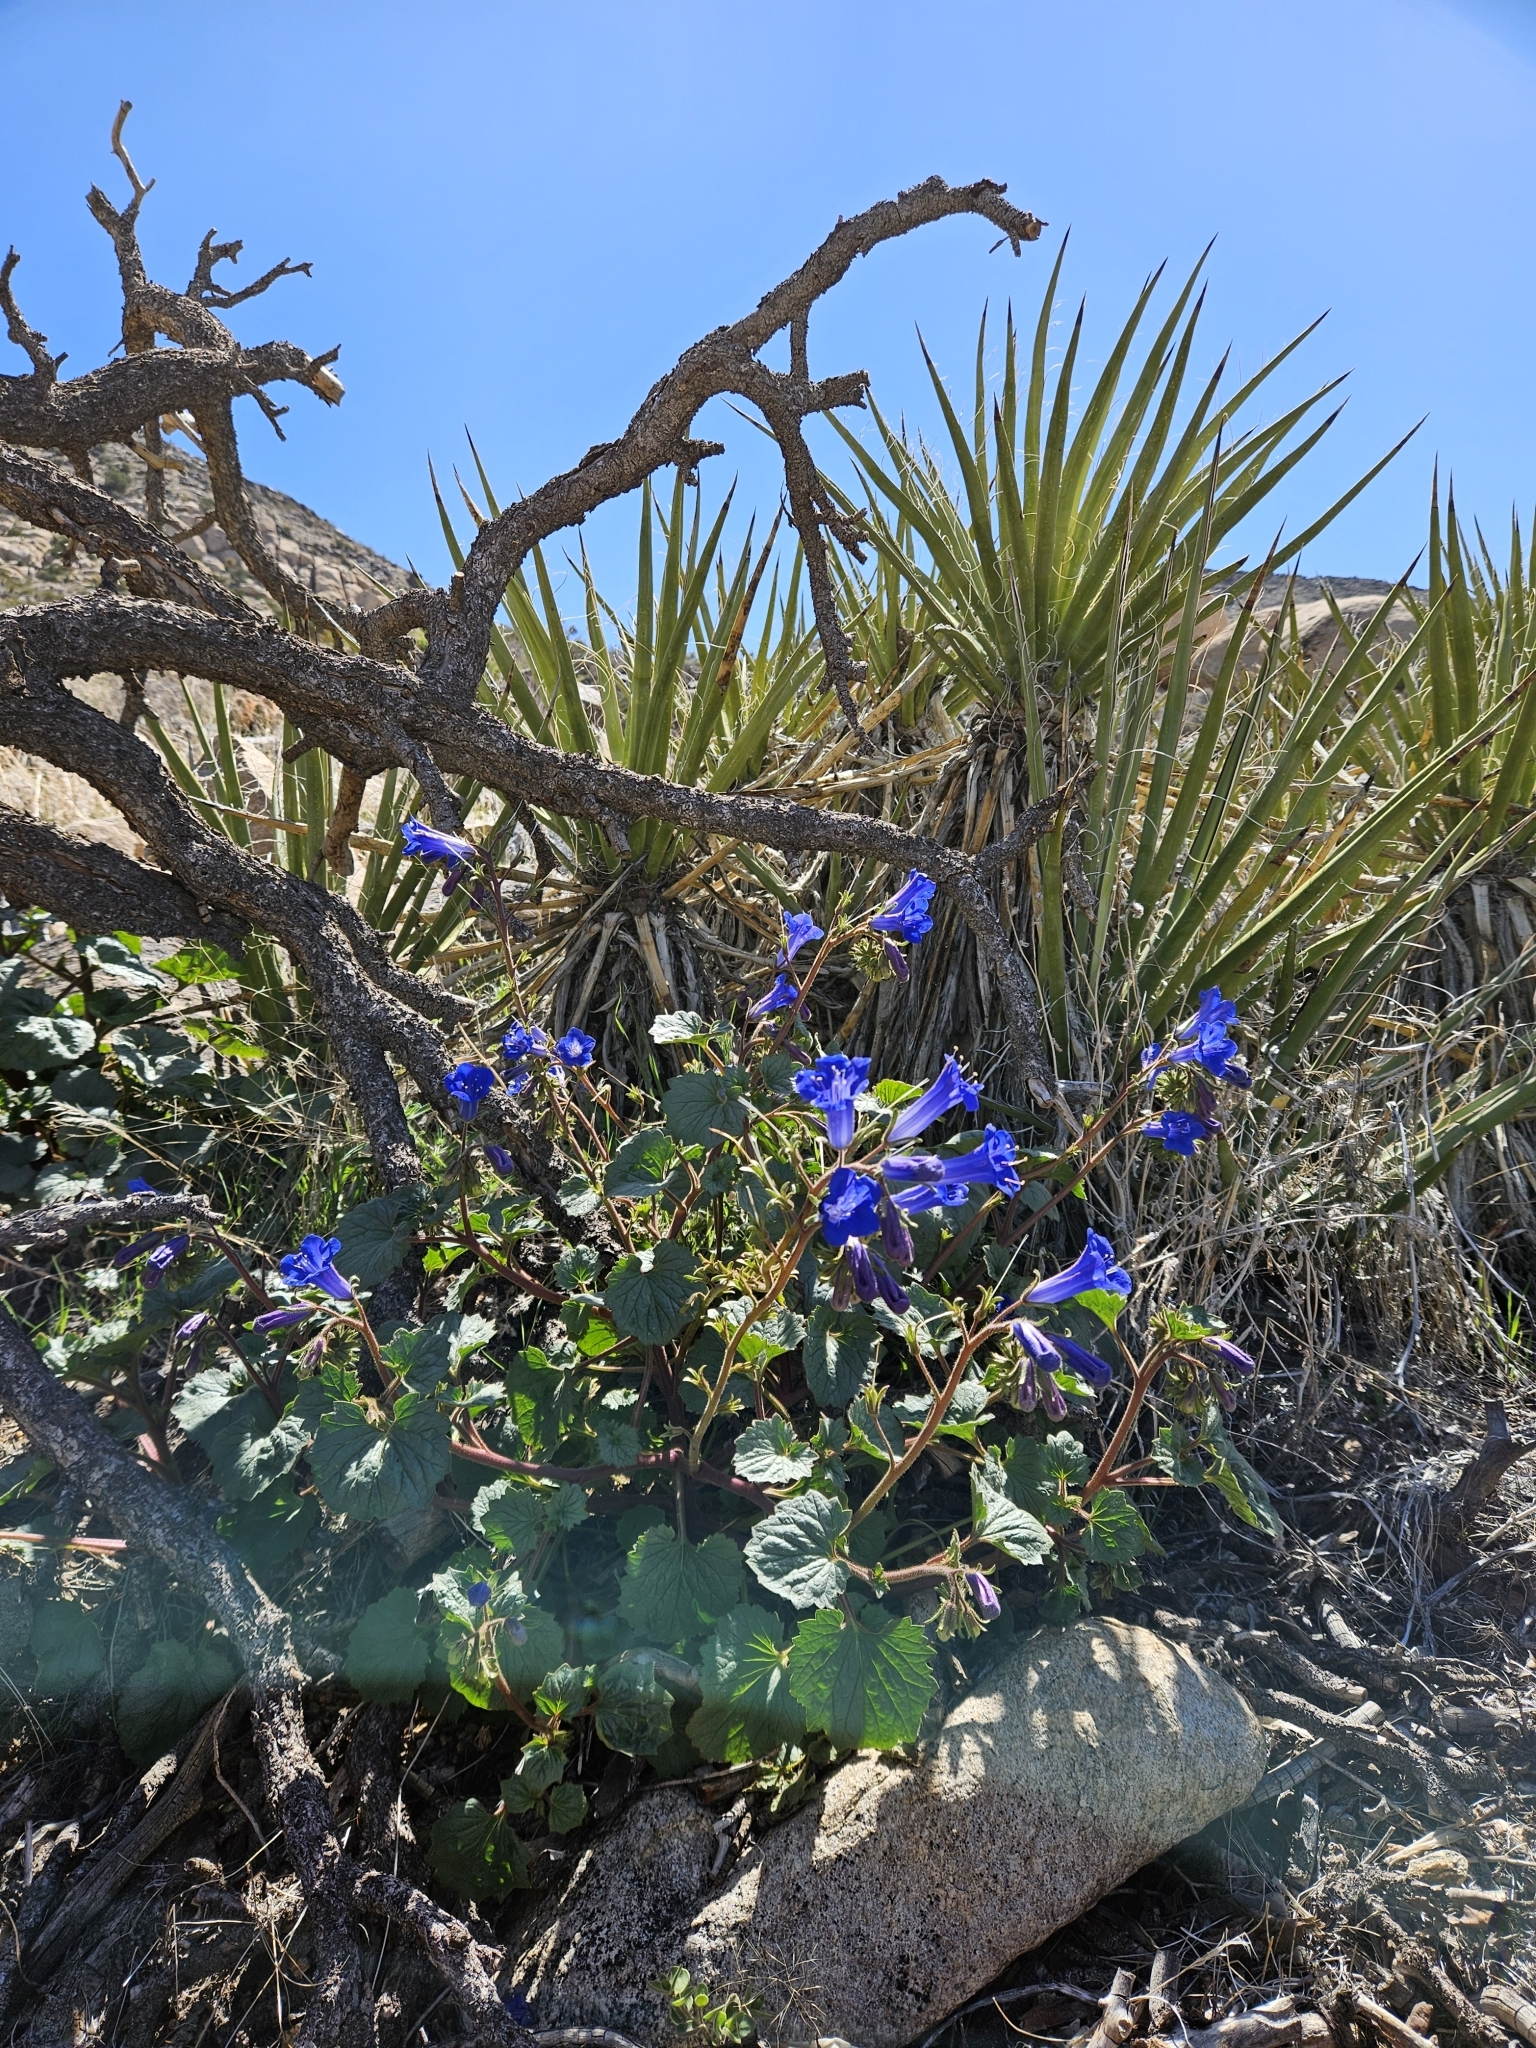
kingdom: Plantae
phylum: Tracheophyta
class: Magnoliopsida
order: Boraginales
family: Hydrophyllaceae
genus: Phacelia
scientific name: Phacelia campanularia
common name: California bluebell
